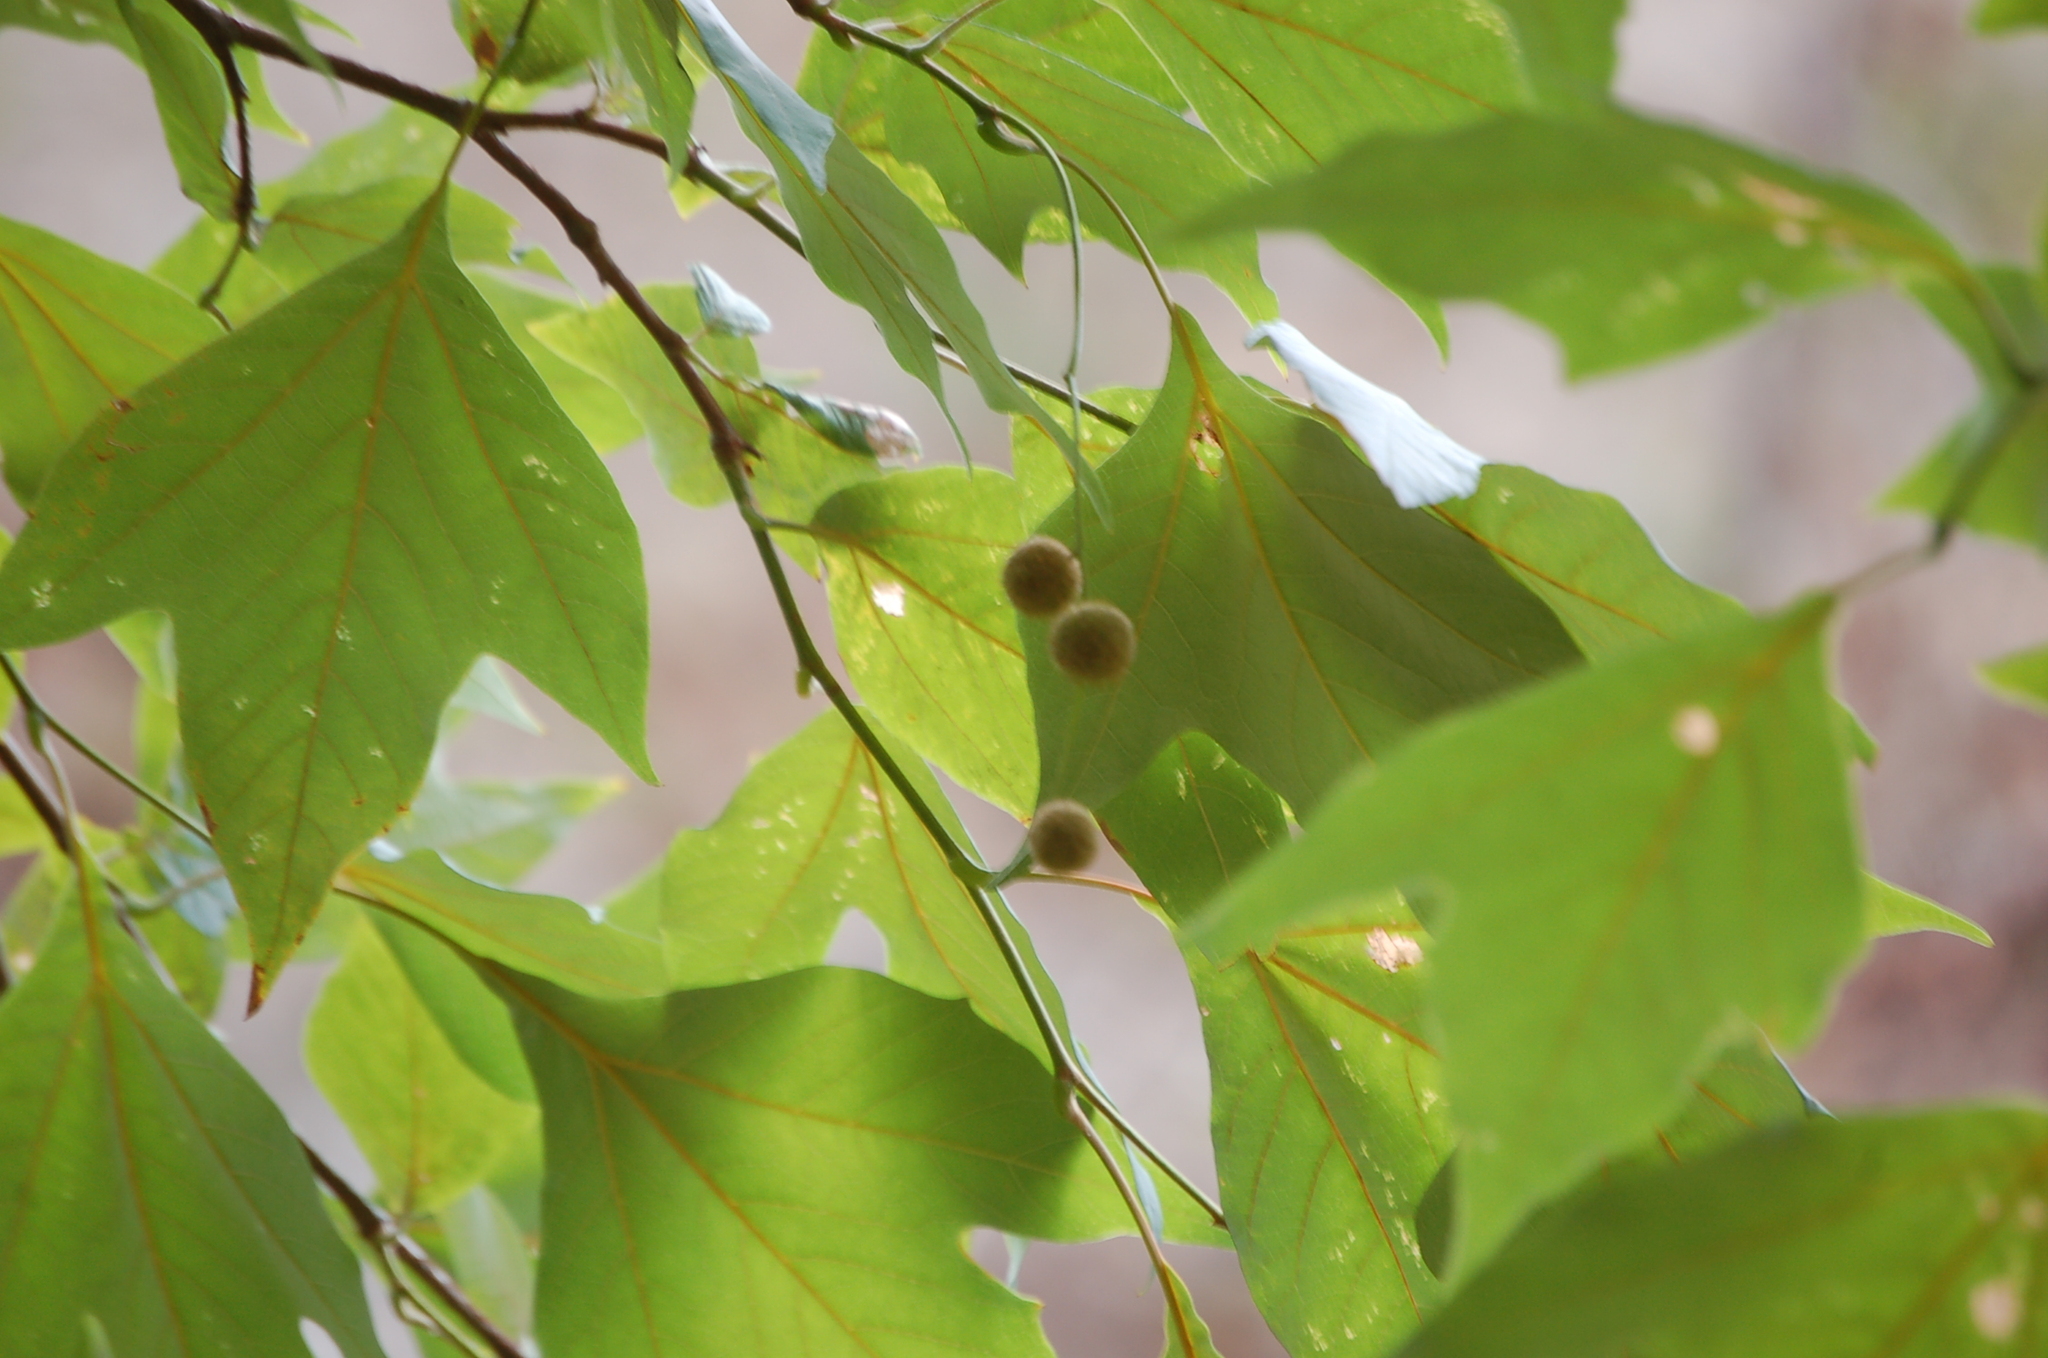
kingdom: Plantae
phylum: Tracheophyta
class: Magnoliopsida
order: Proteales
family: Platanaceae
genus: Platanus
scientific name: Platanus mexicana
